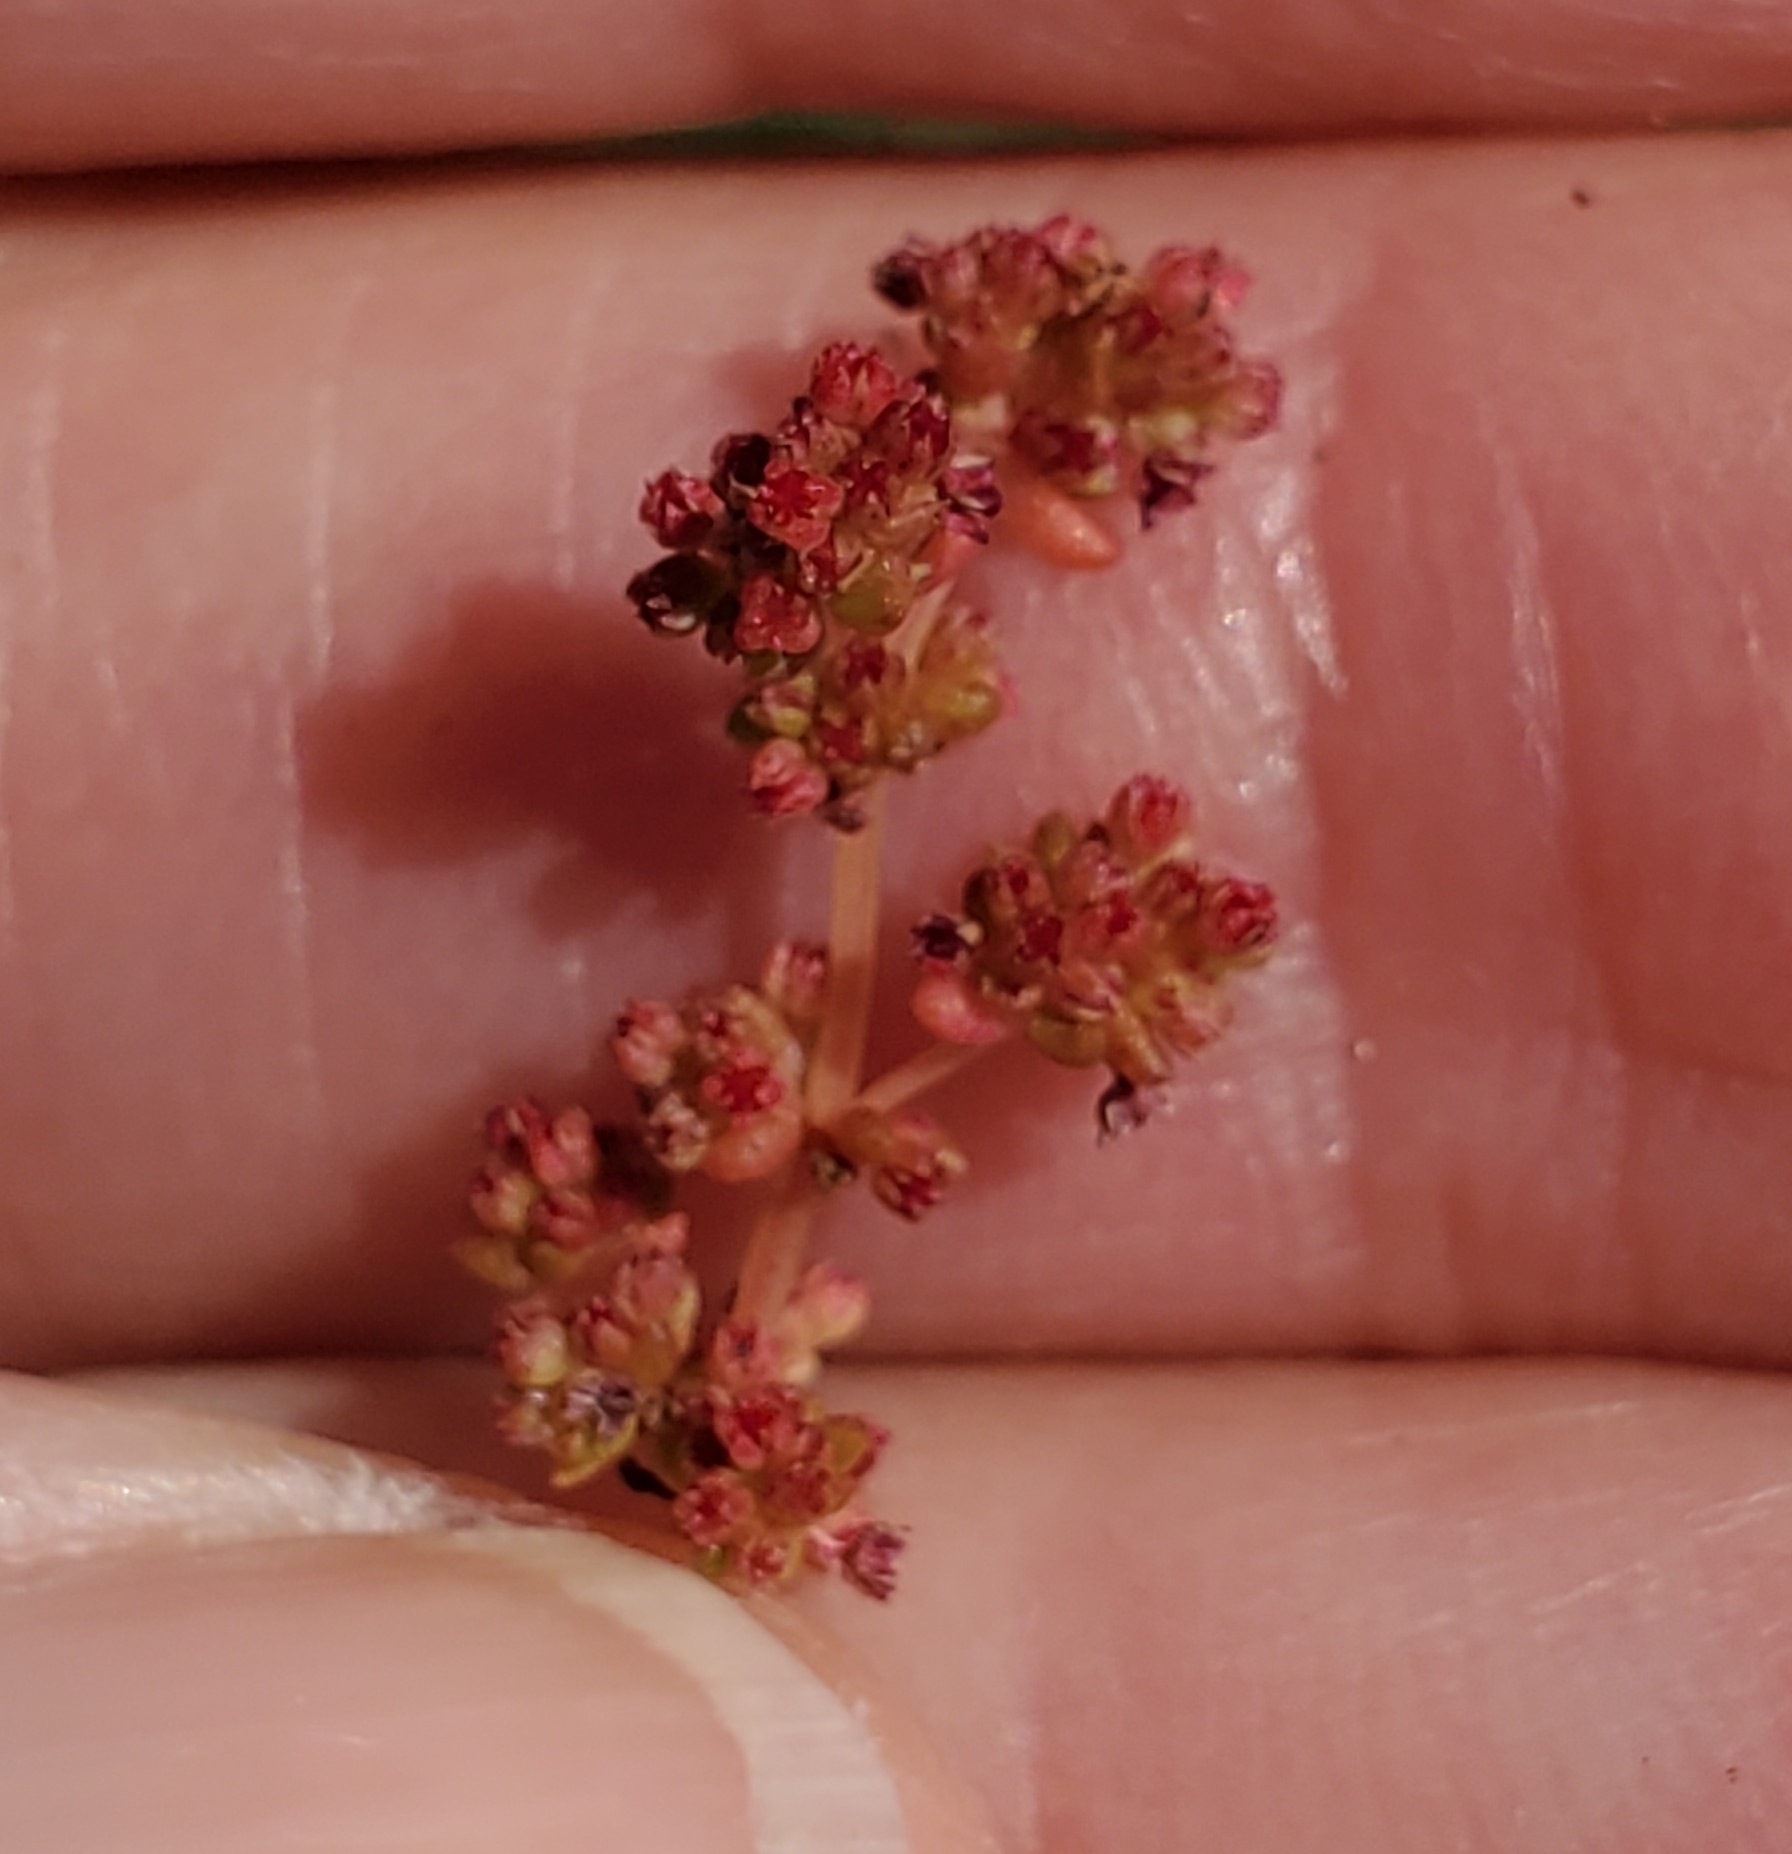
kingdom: Plantae
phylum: Tracheophyta
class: Magnoliopsida
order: Saxifragales
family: Crassulaceae
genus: Crassula
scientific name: Crassula connata
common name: Erect pygmyweed
